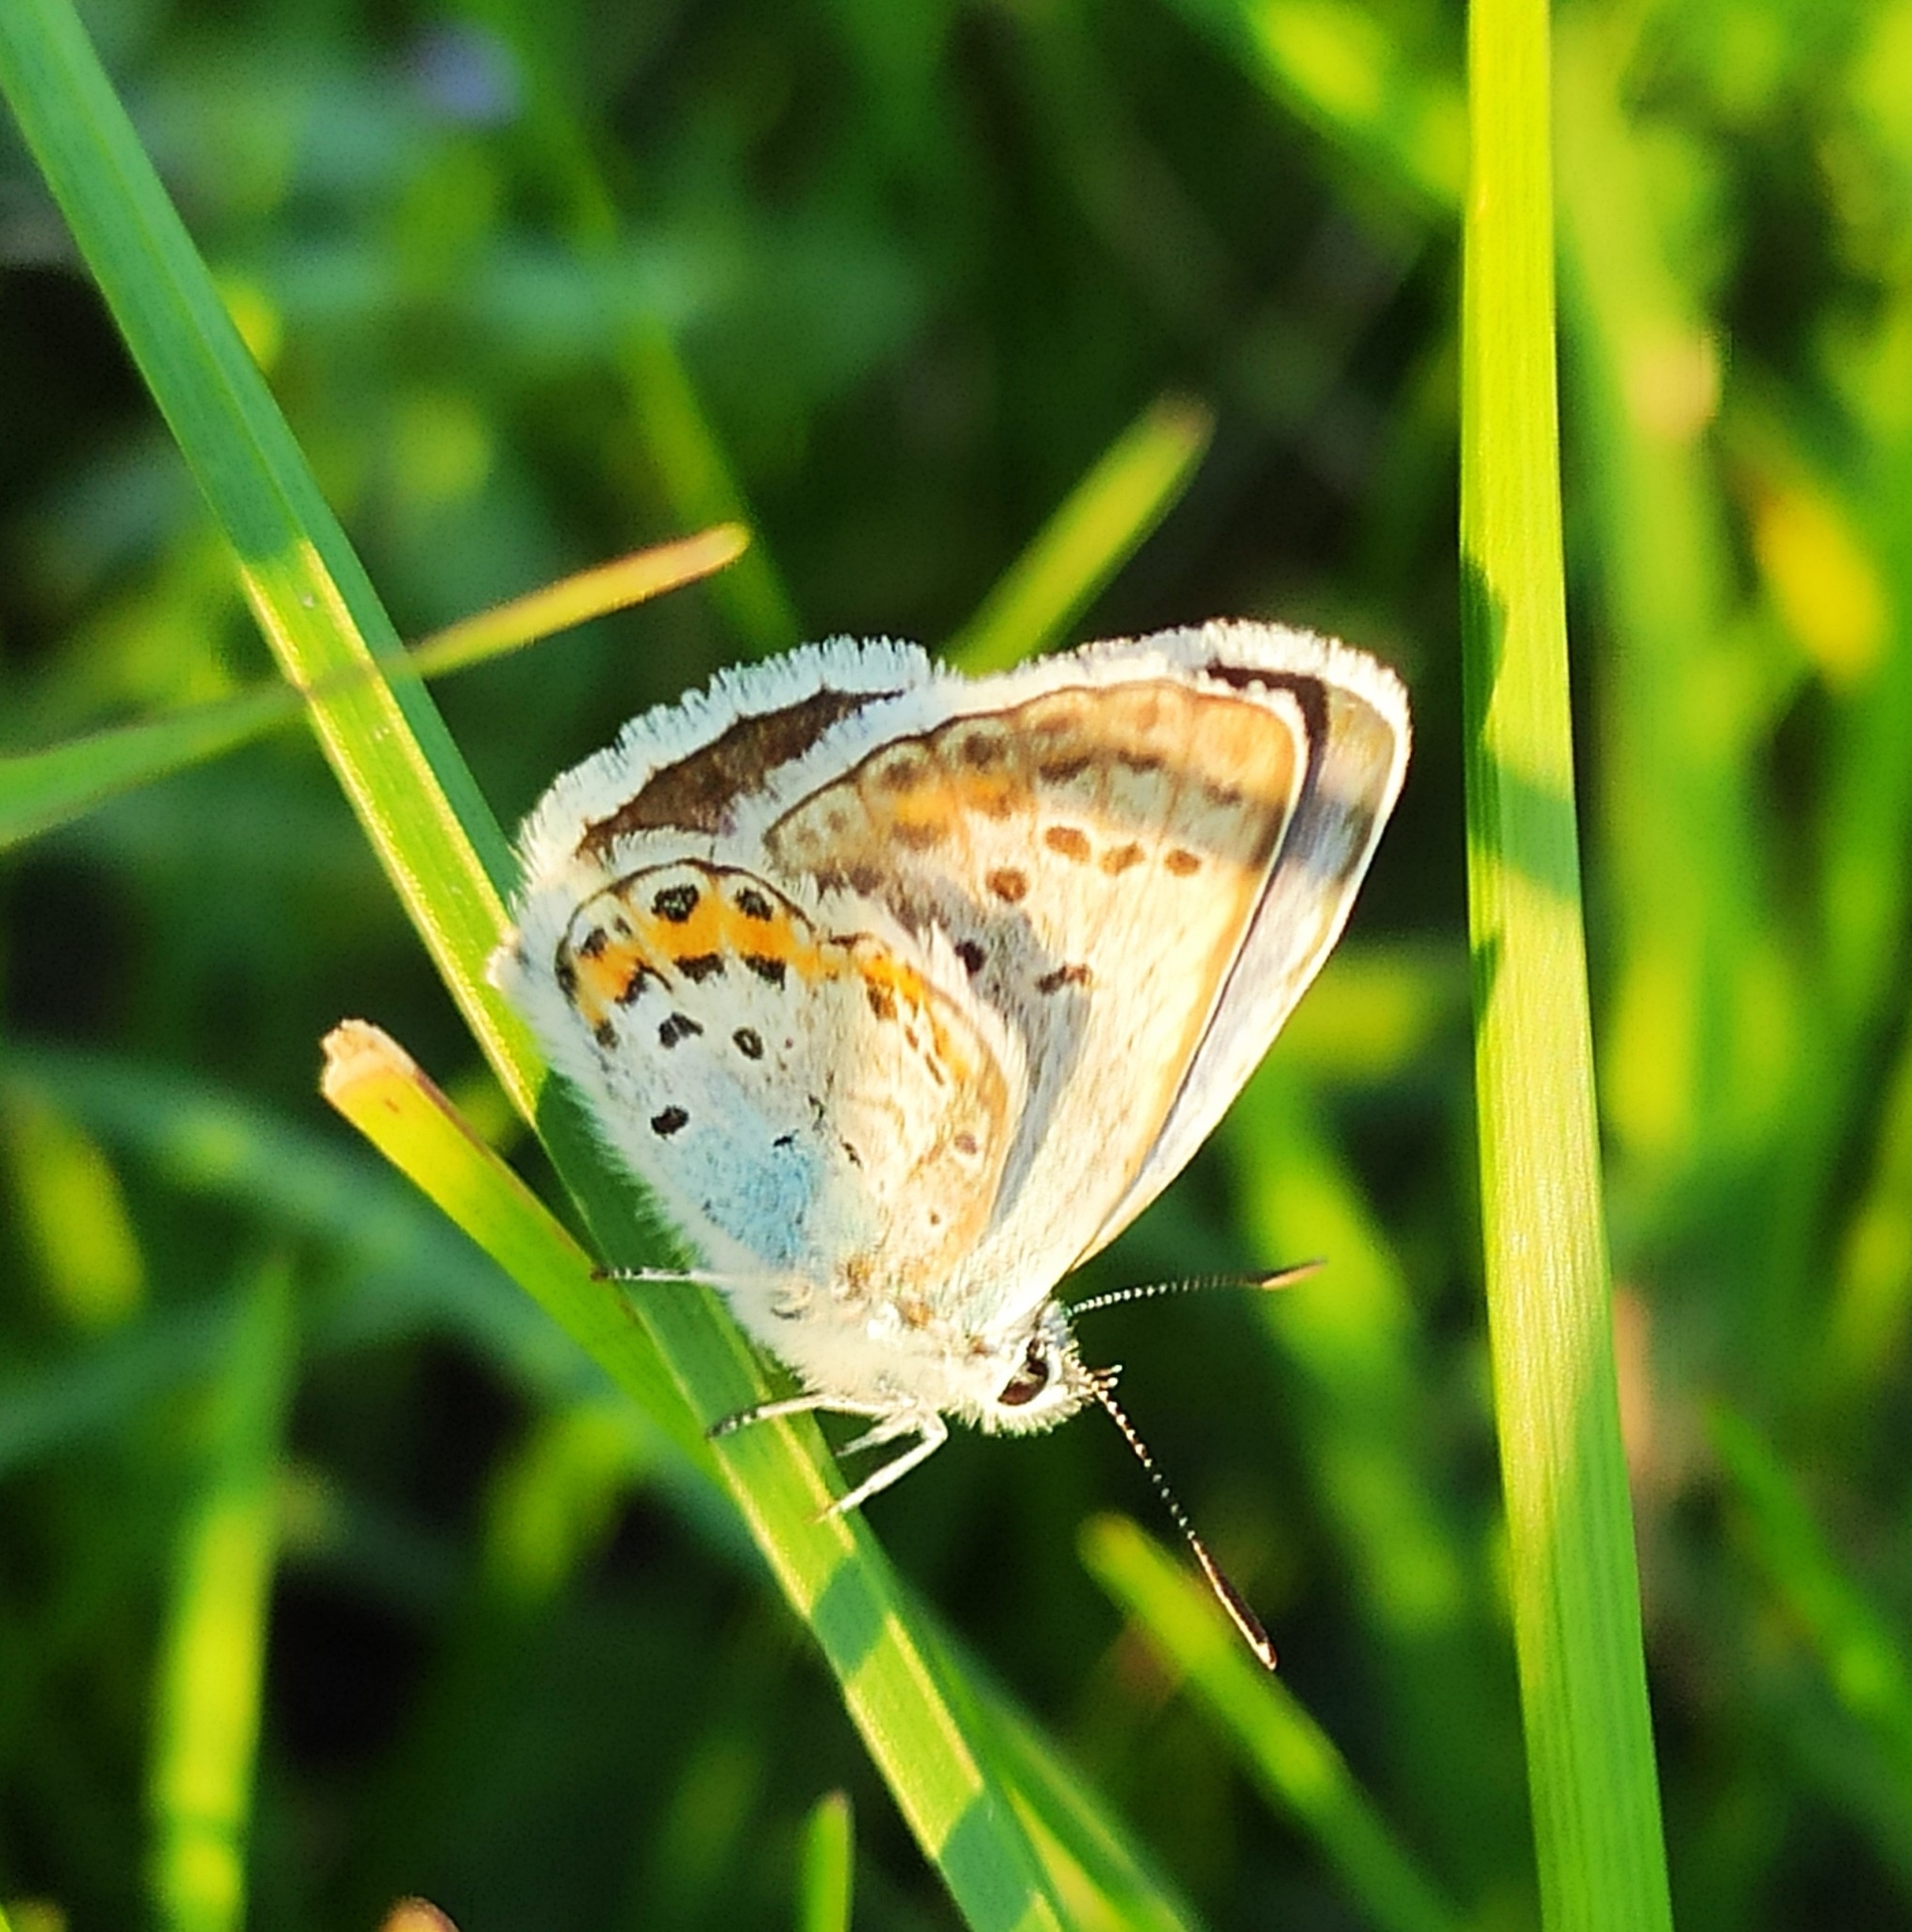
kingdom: Animalia
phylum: Arthropoda
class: Insecta
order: Lepidoptera
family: Lycaenidae
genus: Plebejus
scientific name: Plebejus argus
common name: Silver-studded blue
